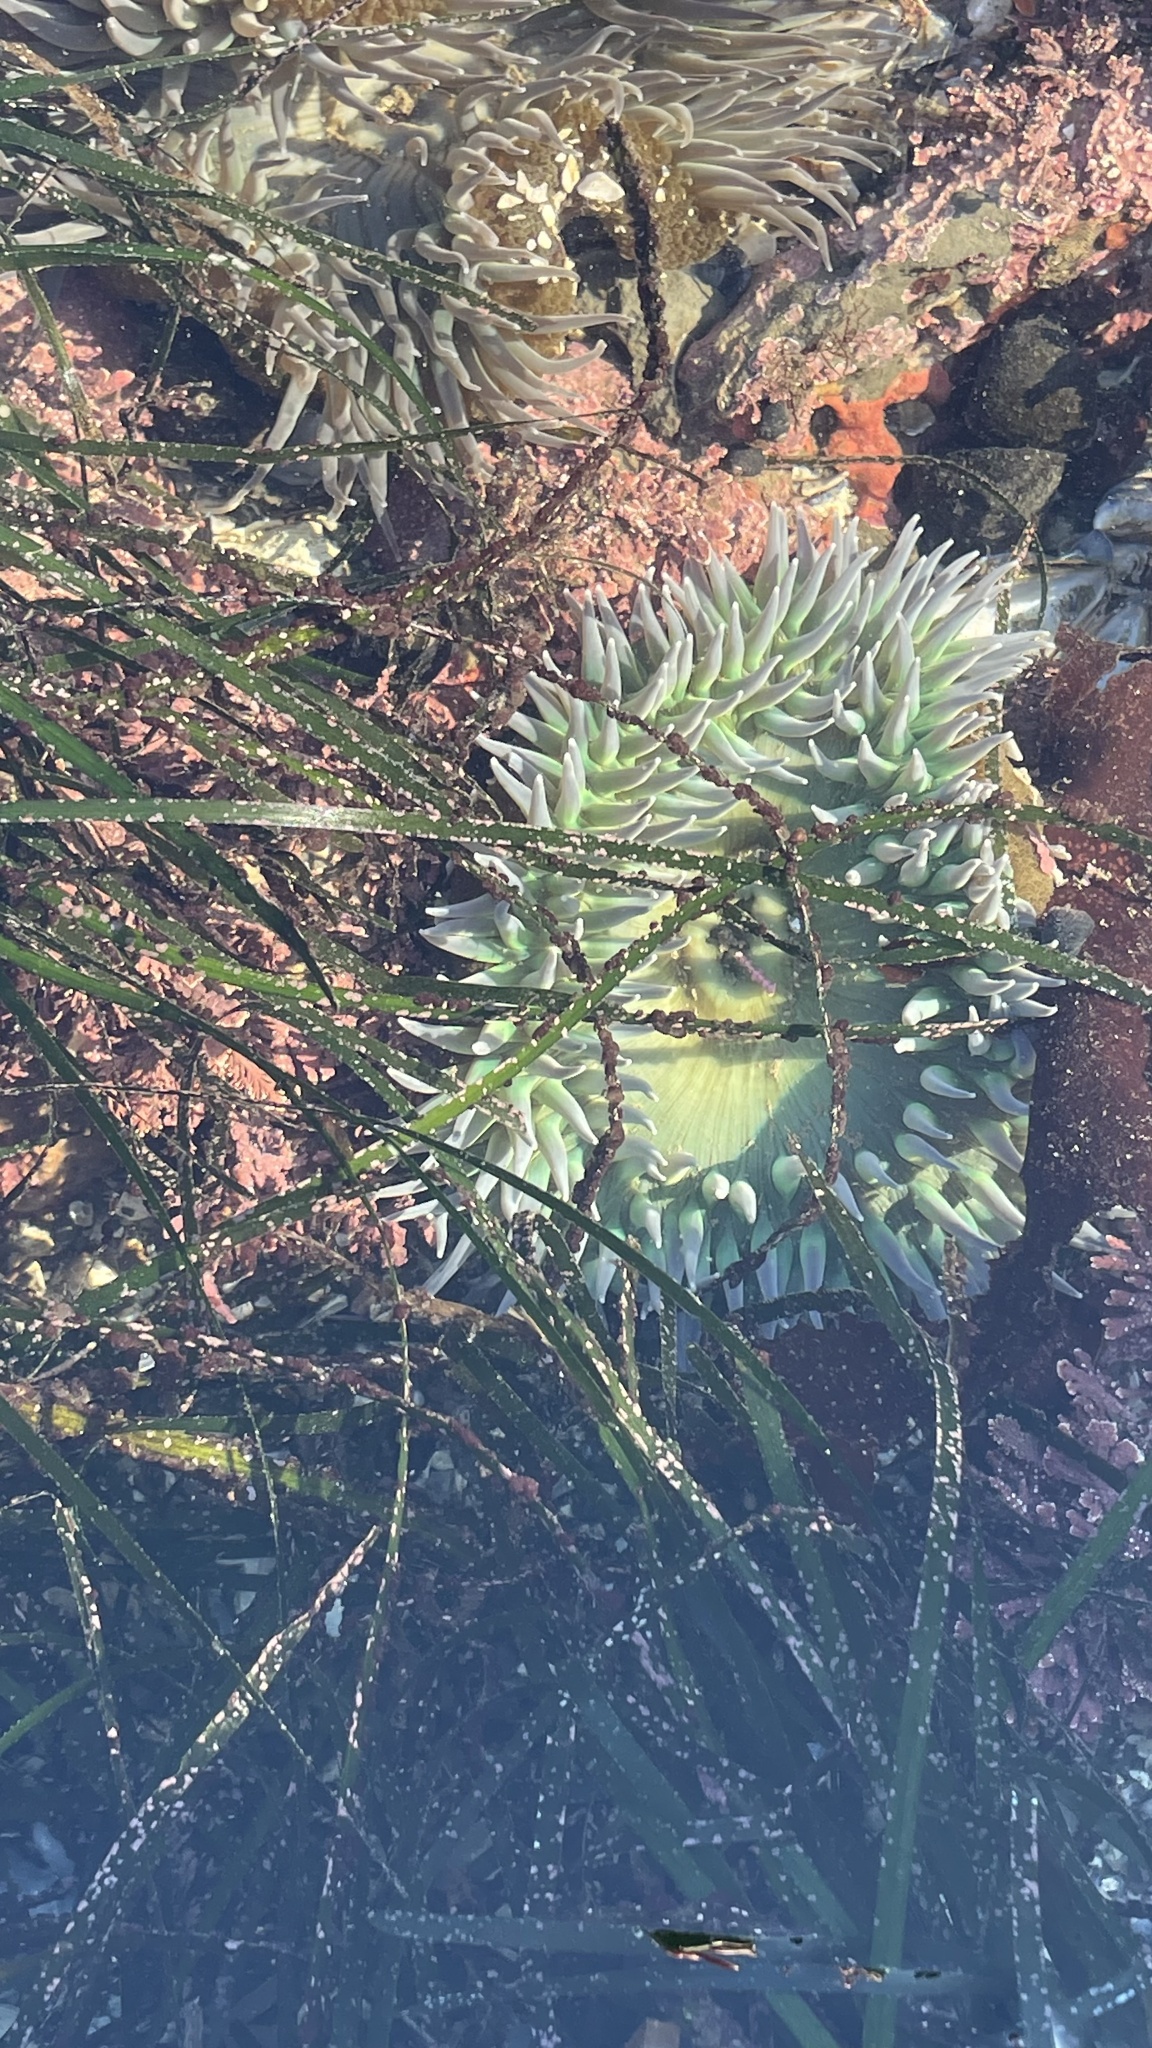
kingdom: Animalia
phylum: Cnidaria
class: Anthozoa
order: Actiniaria
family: Actiniidae
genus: Anthopleura
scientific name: Anthopleura xanthogrammica
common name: Giant green anemone
